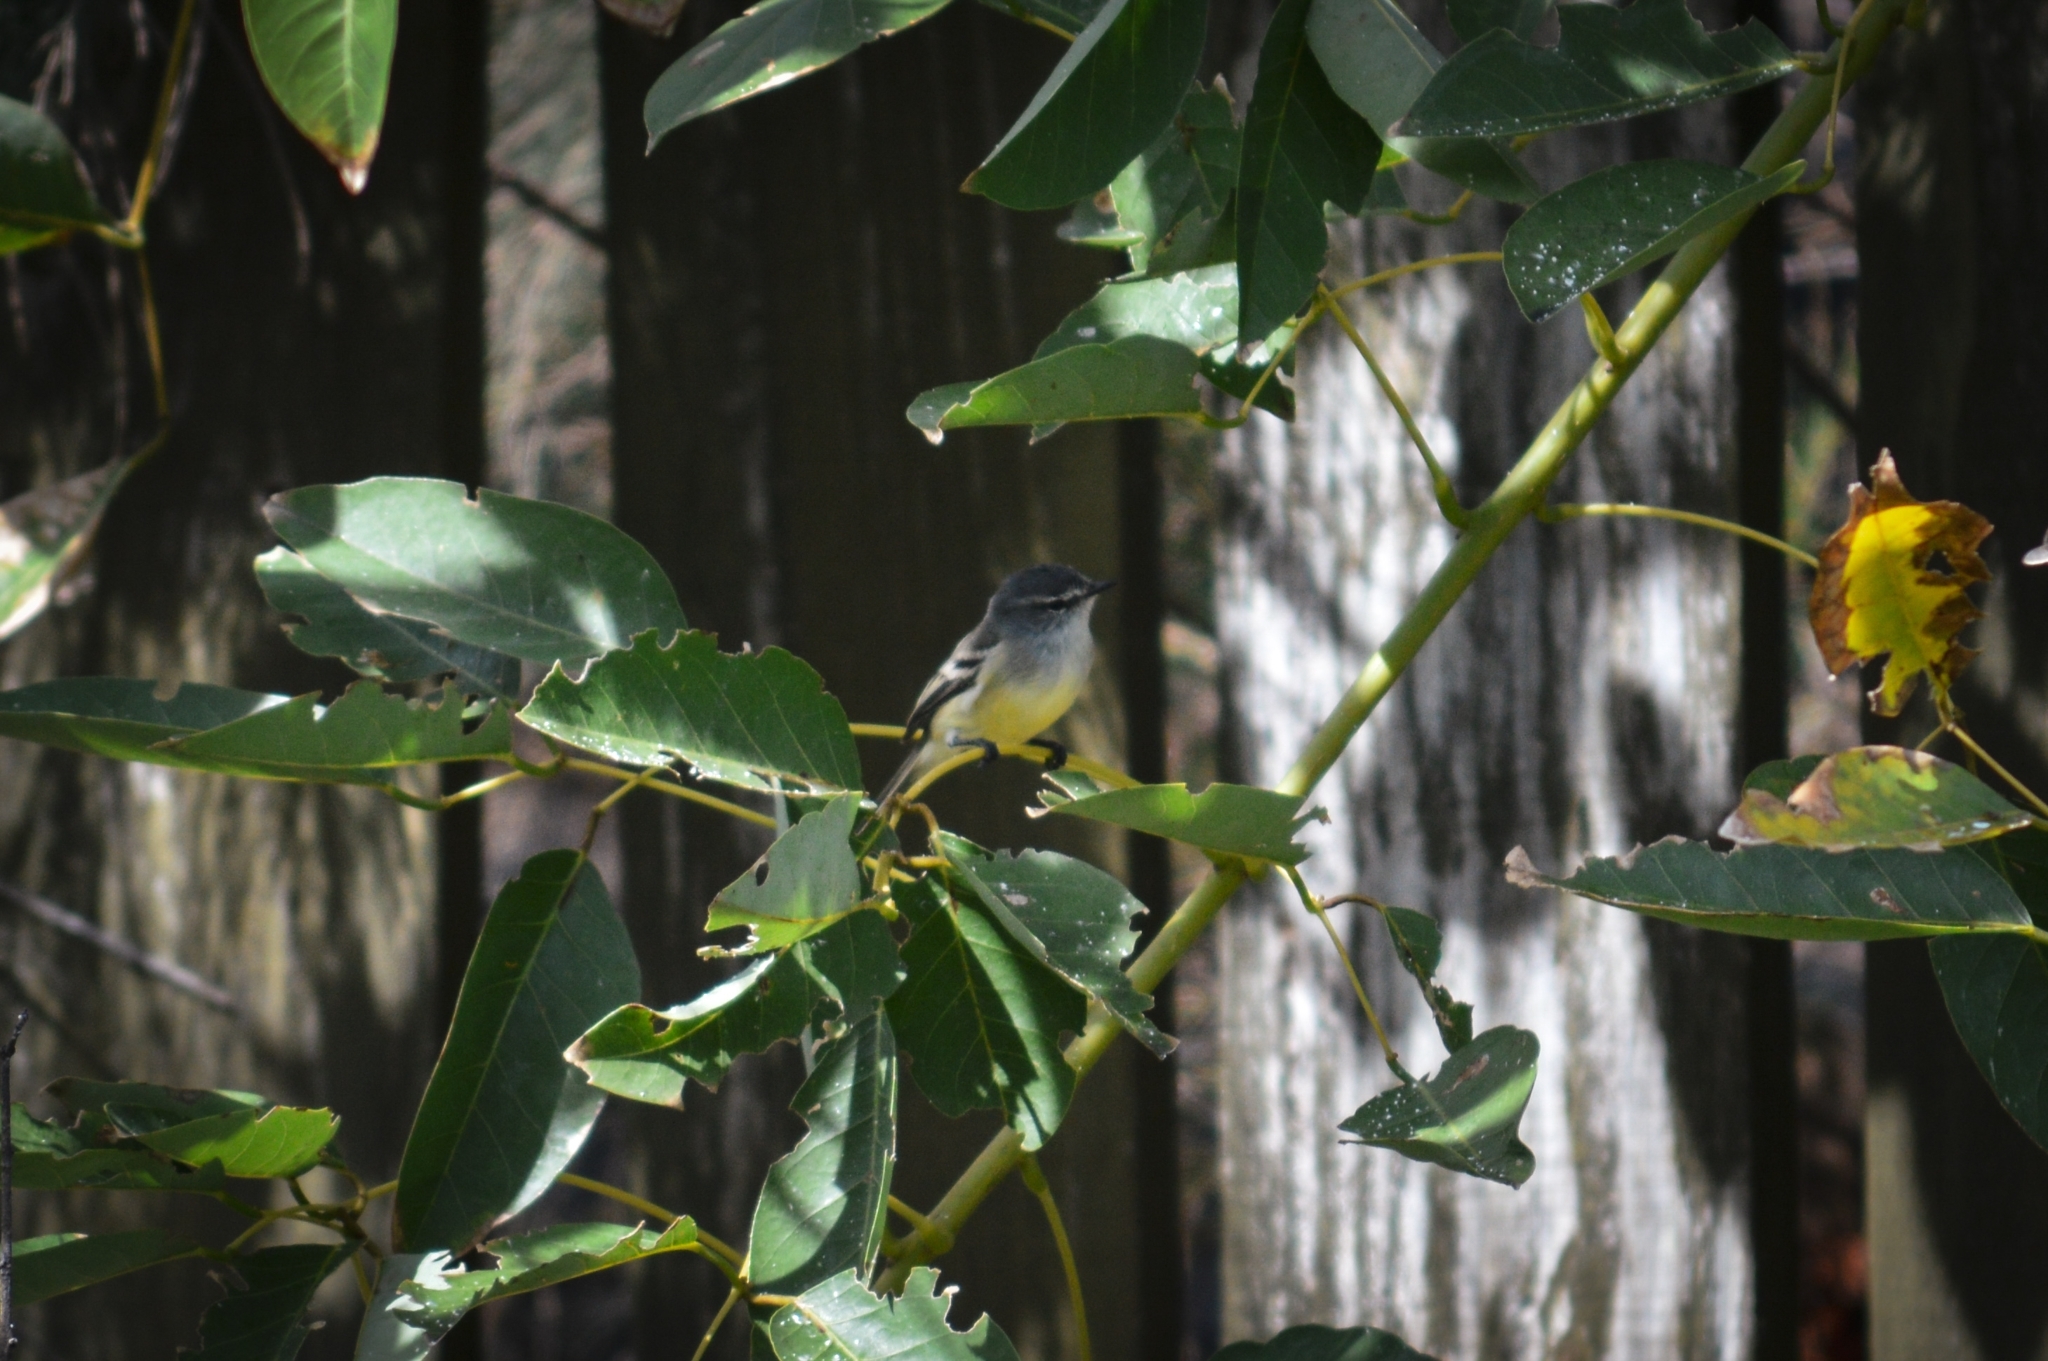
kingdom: Animalia
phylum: Chordata
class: Aves
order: Passeriformes
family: Tyrannidae
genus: Serpophaga
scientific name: Serpophaga subcristata
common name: White-crested tyrannulet
